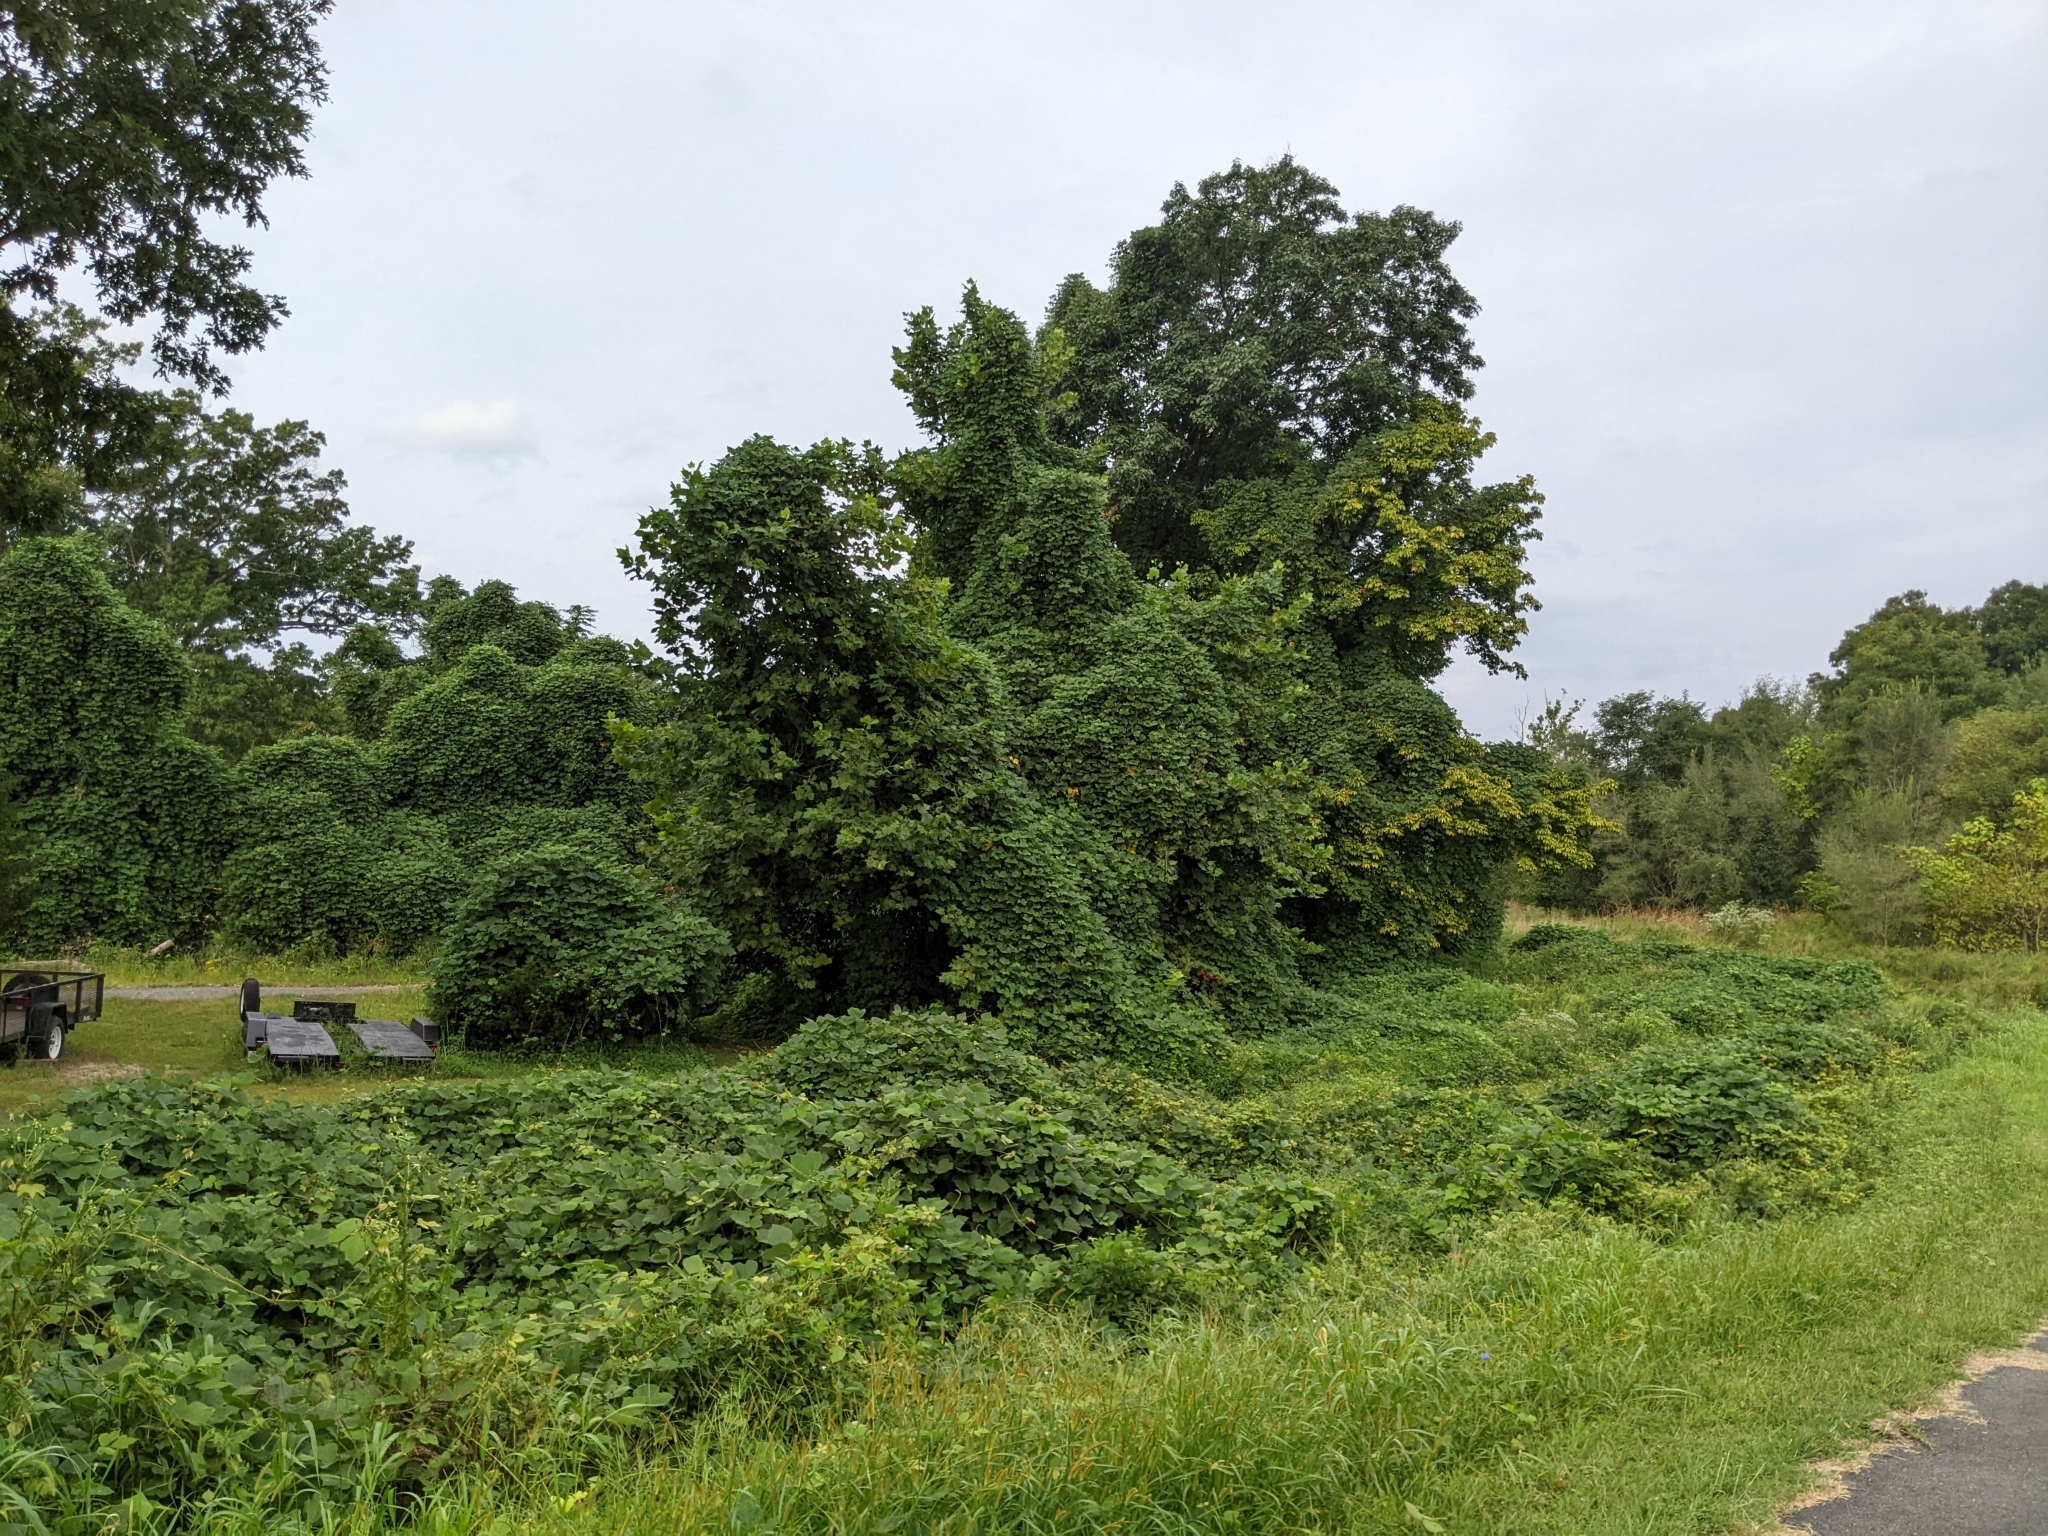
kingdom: Plantae
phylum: Tracheophyta
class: Magnoliopsida
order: Fabales
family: Fabaceae
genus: Pueraria
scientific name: Pueraria montana
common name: Kudzu
